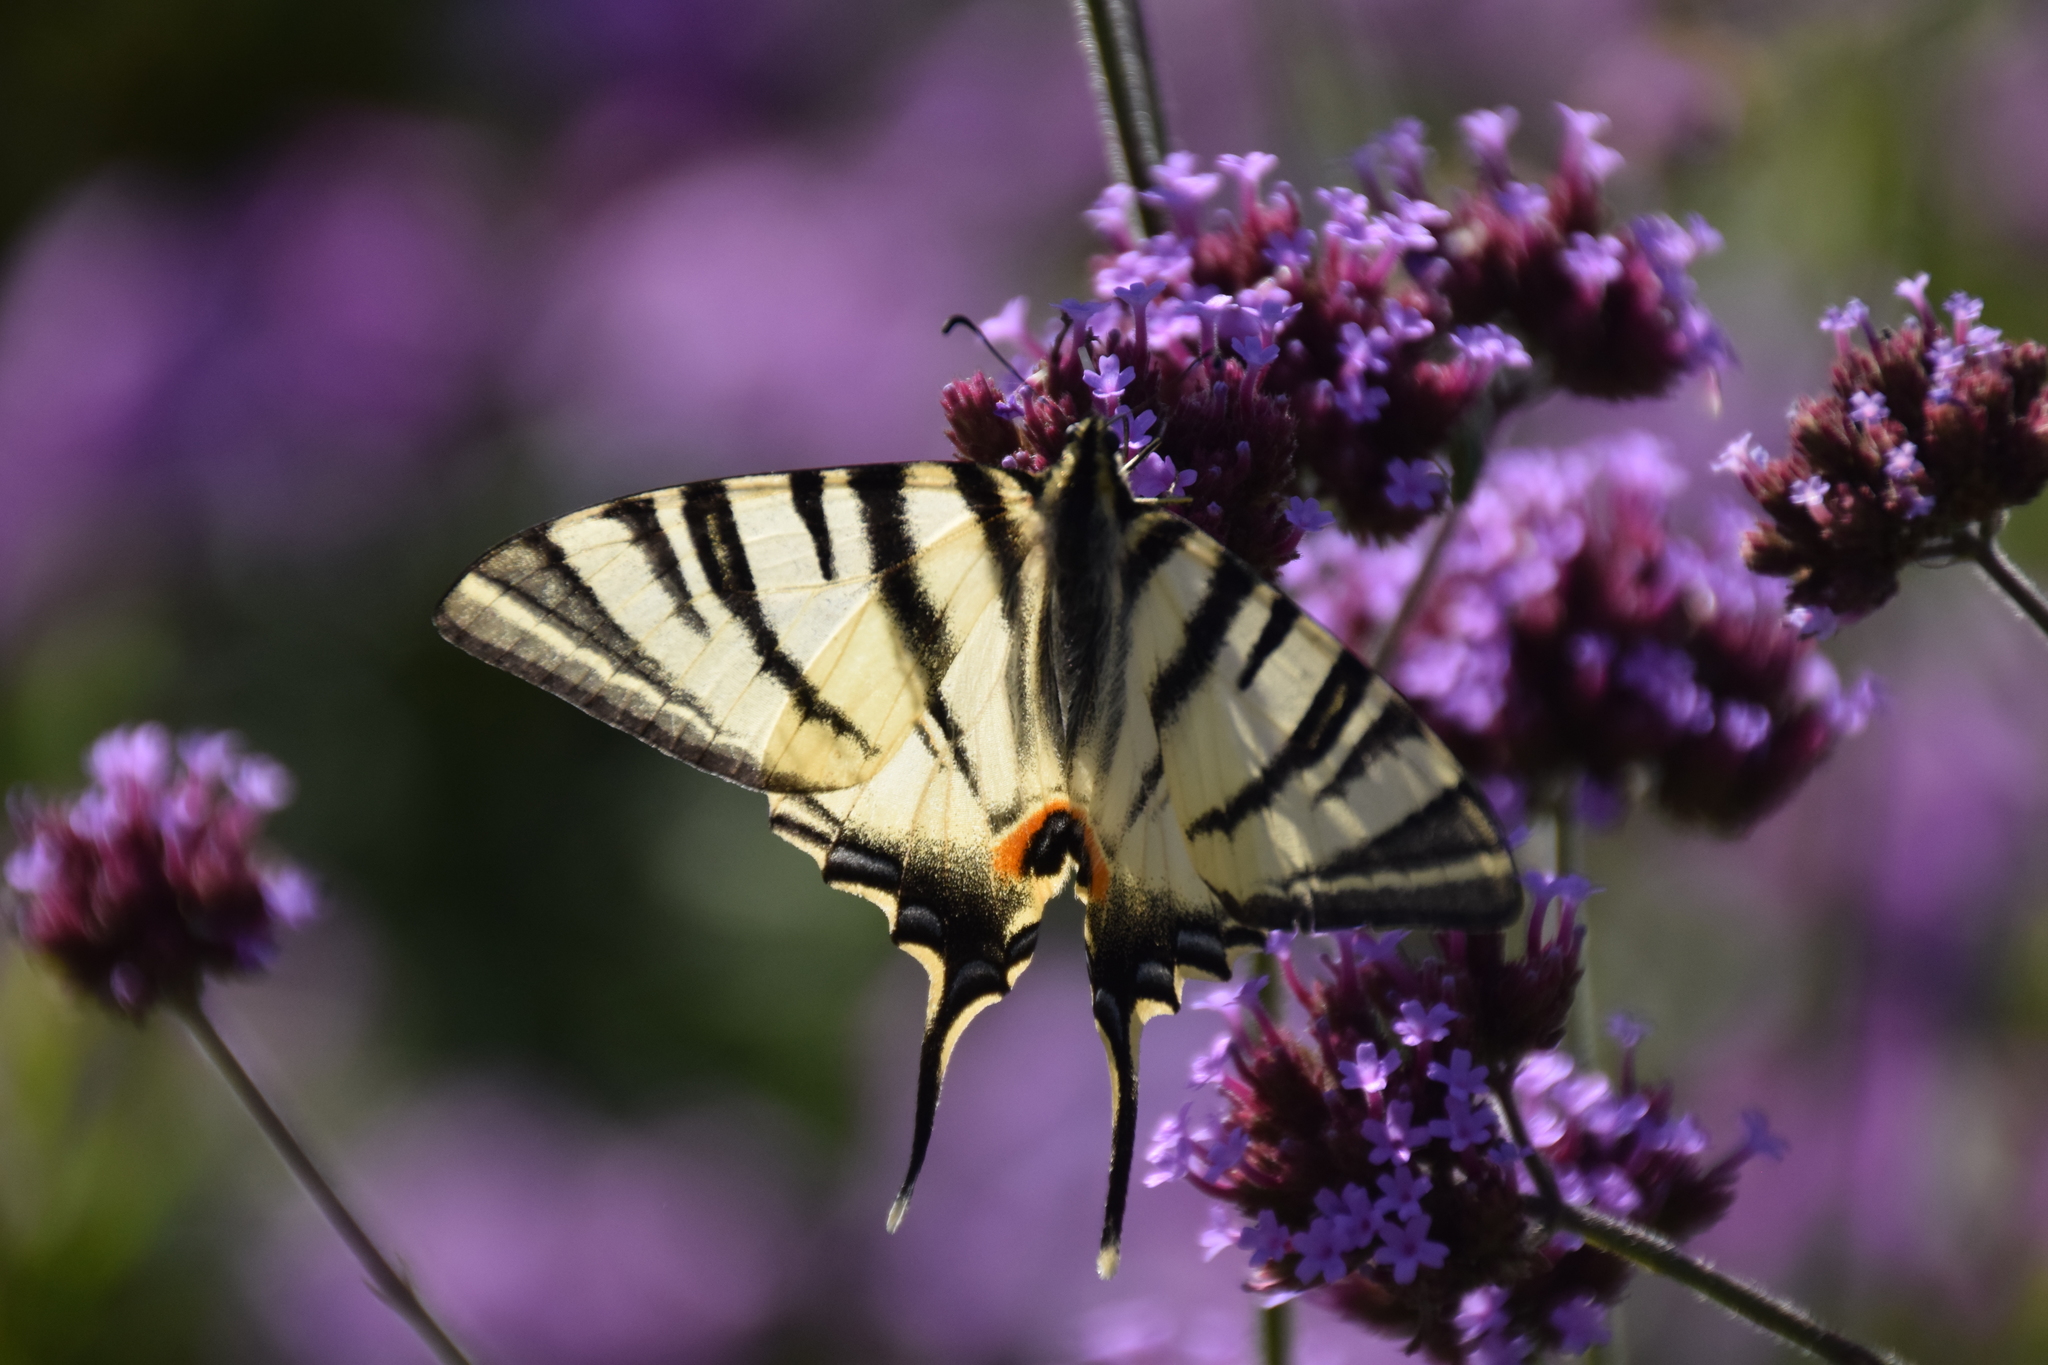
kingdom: Animalia
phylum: Arthropoda
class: Insecta
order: Lepidoptera
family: Papilionidae
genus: Iphiclides
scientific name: Iphiclides podalirius
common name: Scarce swallowtail
